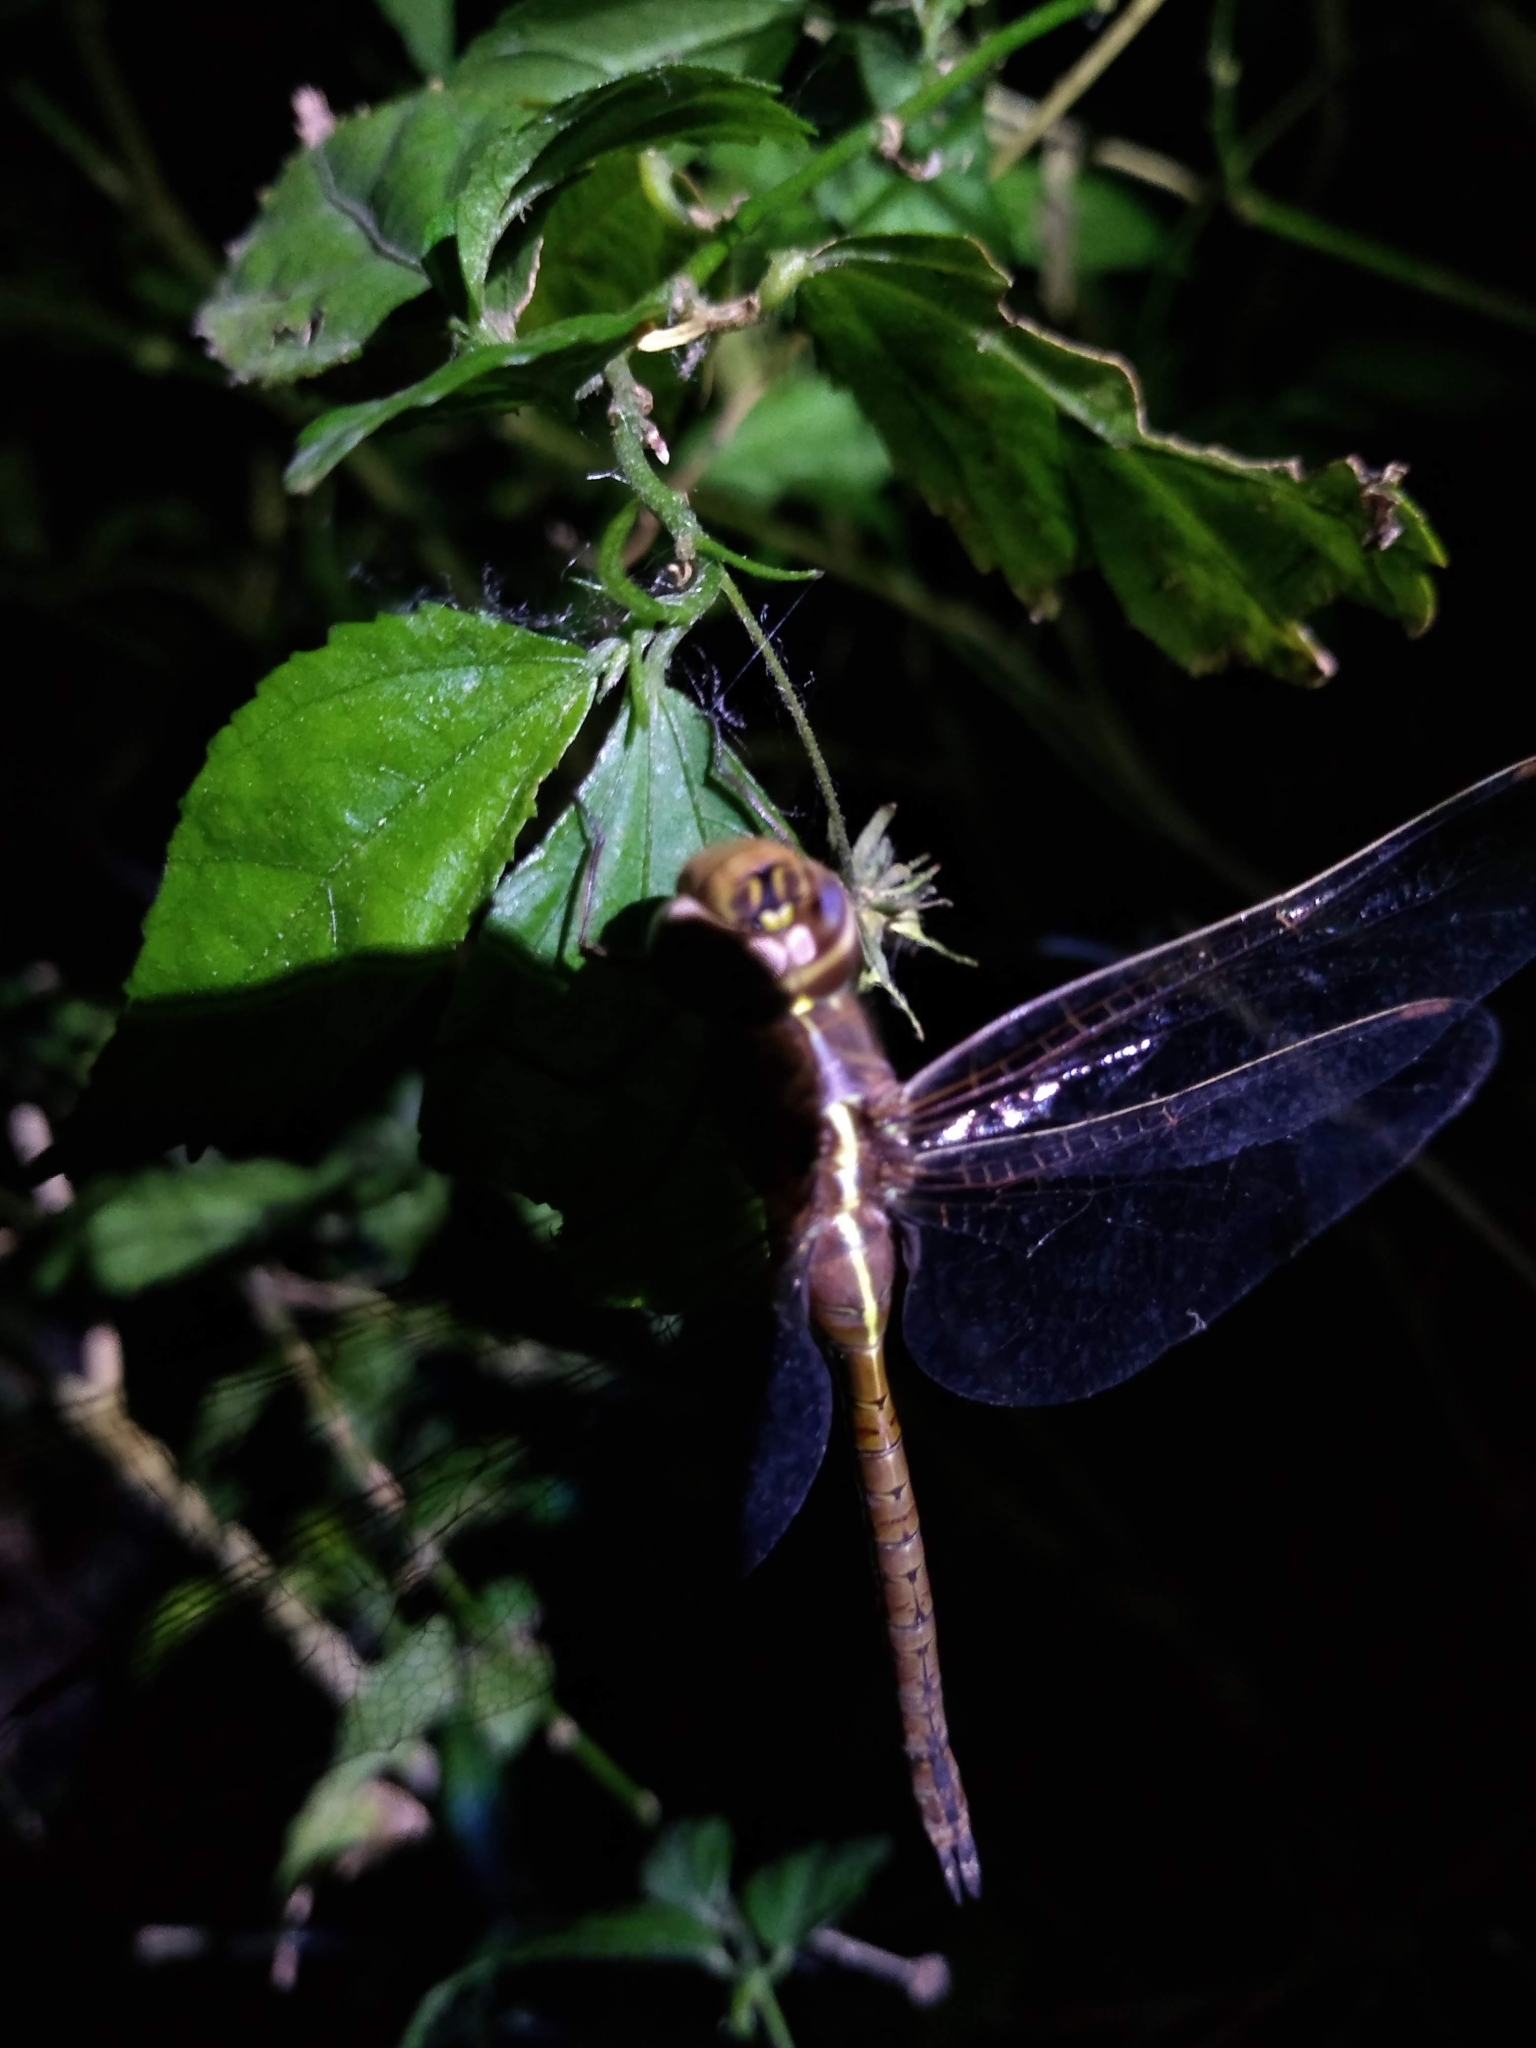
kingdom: Animalia
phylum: Arthropoda
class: Insecta
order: Odonata
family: Aeshnidae
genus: Rhionaeschna
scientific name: Rhionaeschna bonariensis
